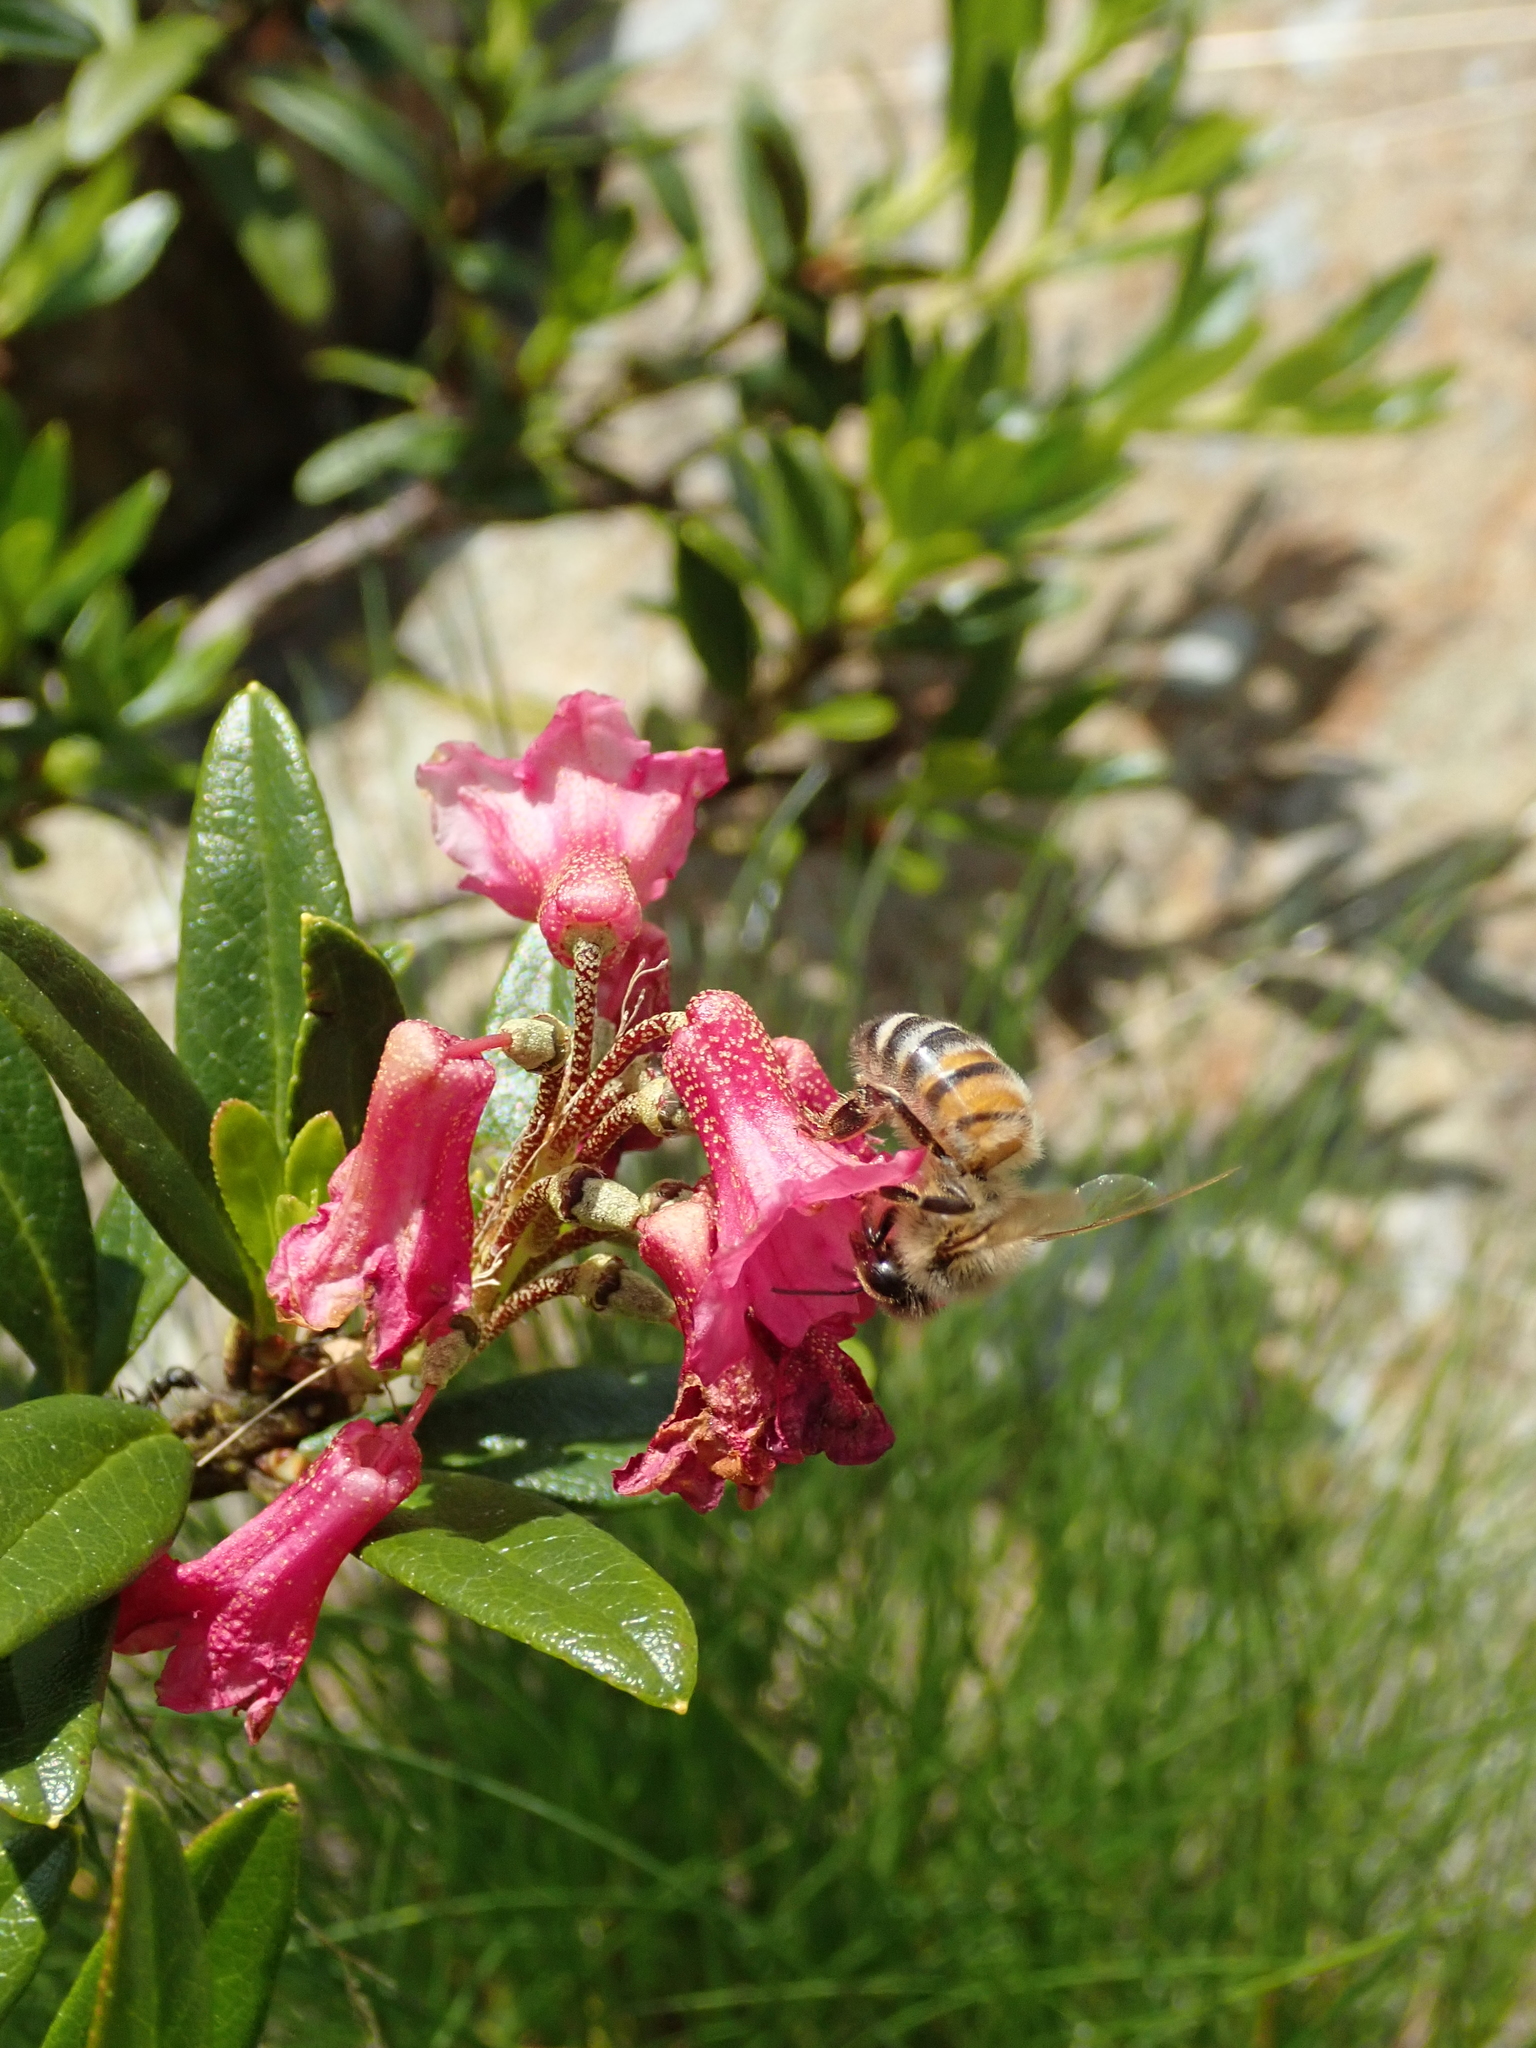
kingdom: Animalia
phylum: Arthropoda
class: Insecta
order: Hymenoptera
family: Apidae
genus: Apis
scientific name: Apis mellifera
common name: Honey bee
